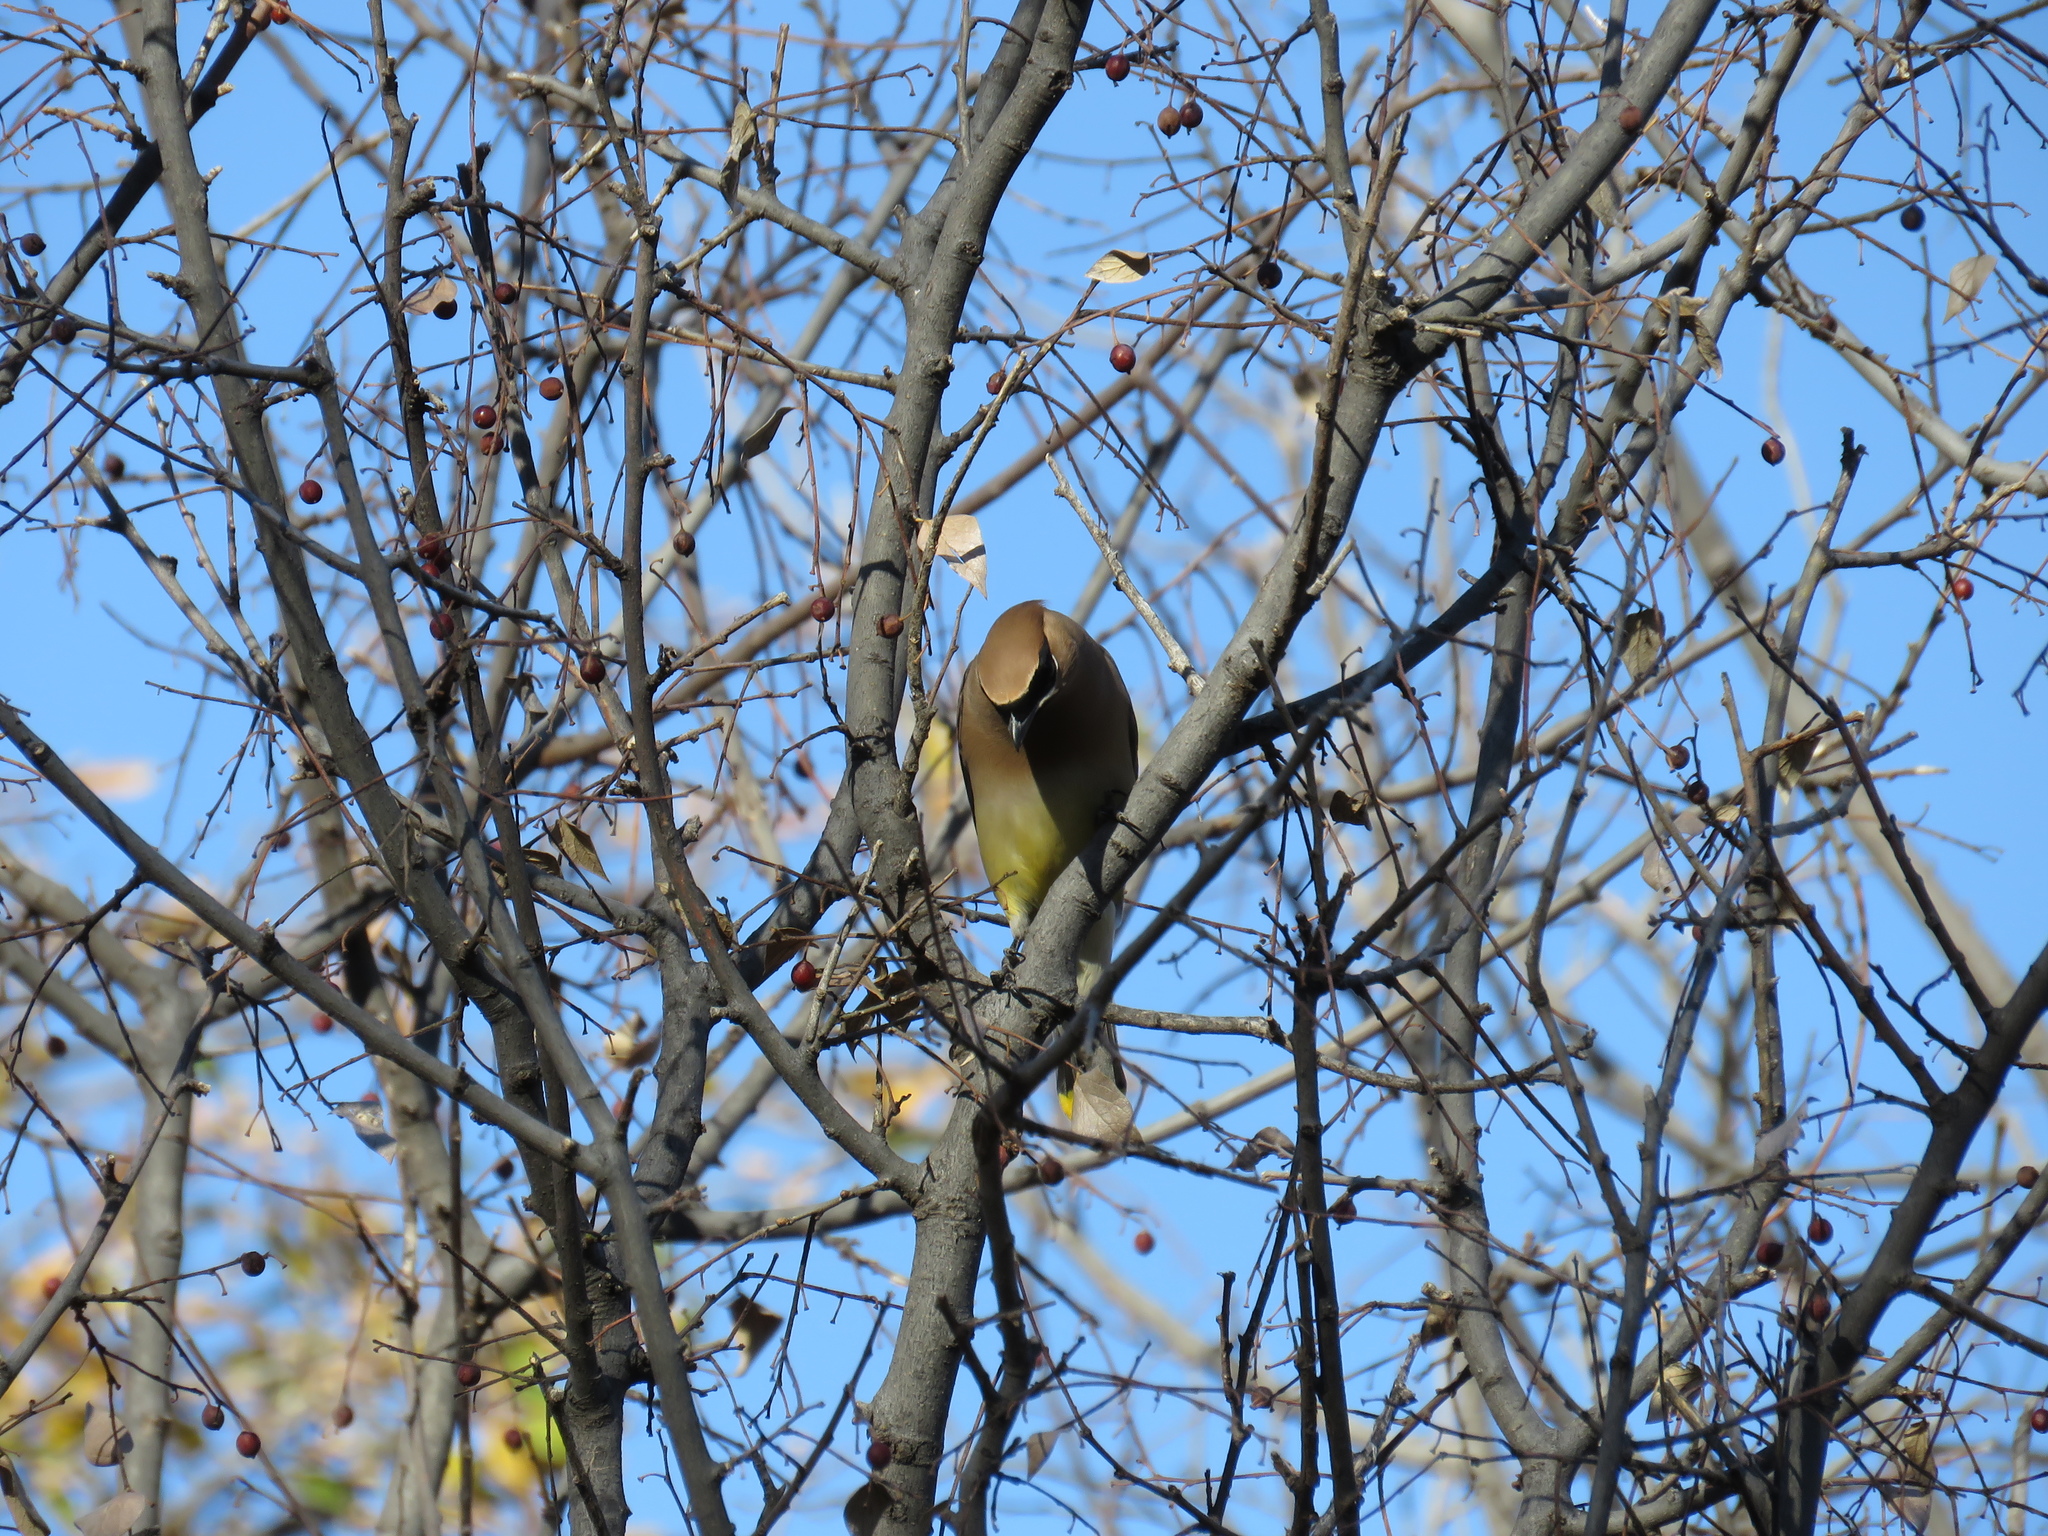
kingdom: Animalia
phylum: Chordata
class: Aves
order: Passeriformes
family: Bombycillidae
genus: Bombycilla
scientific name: Bombycilla cedrorum
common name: Cedar waxwing
